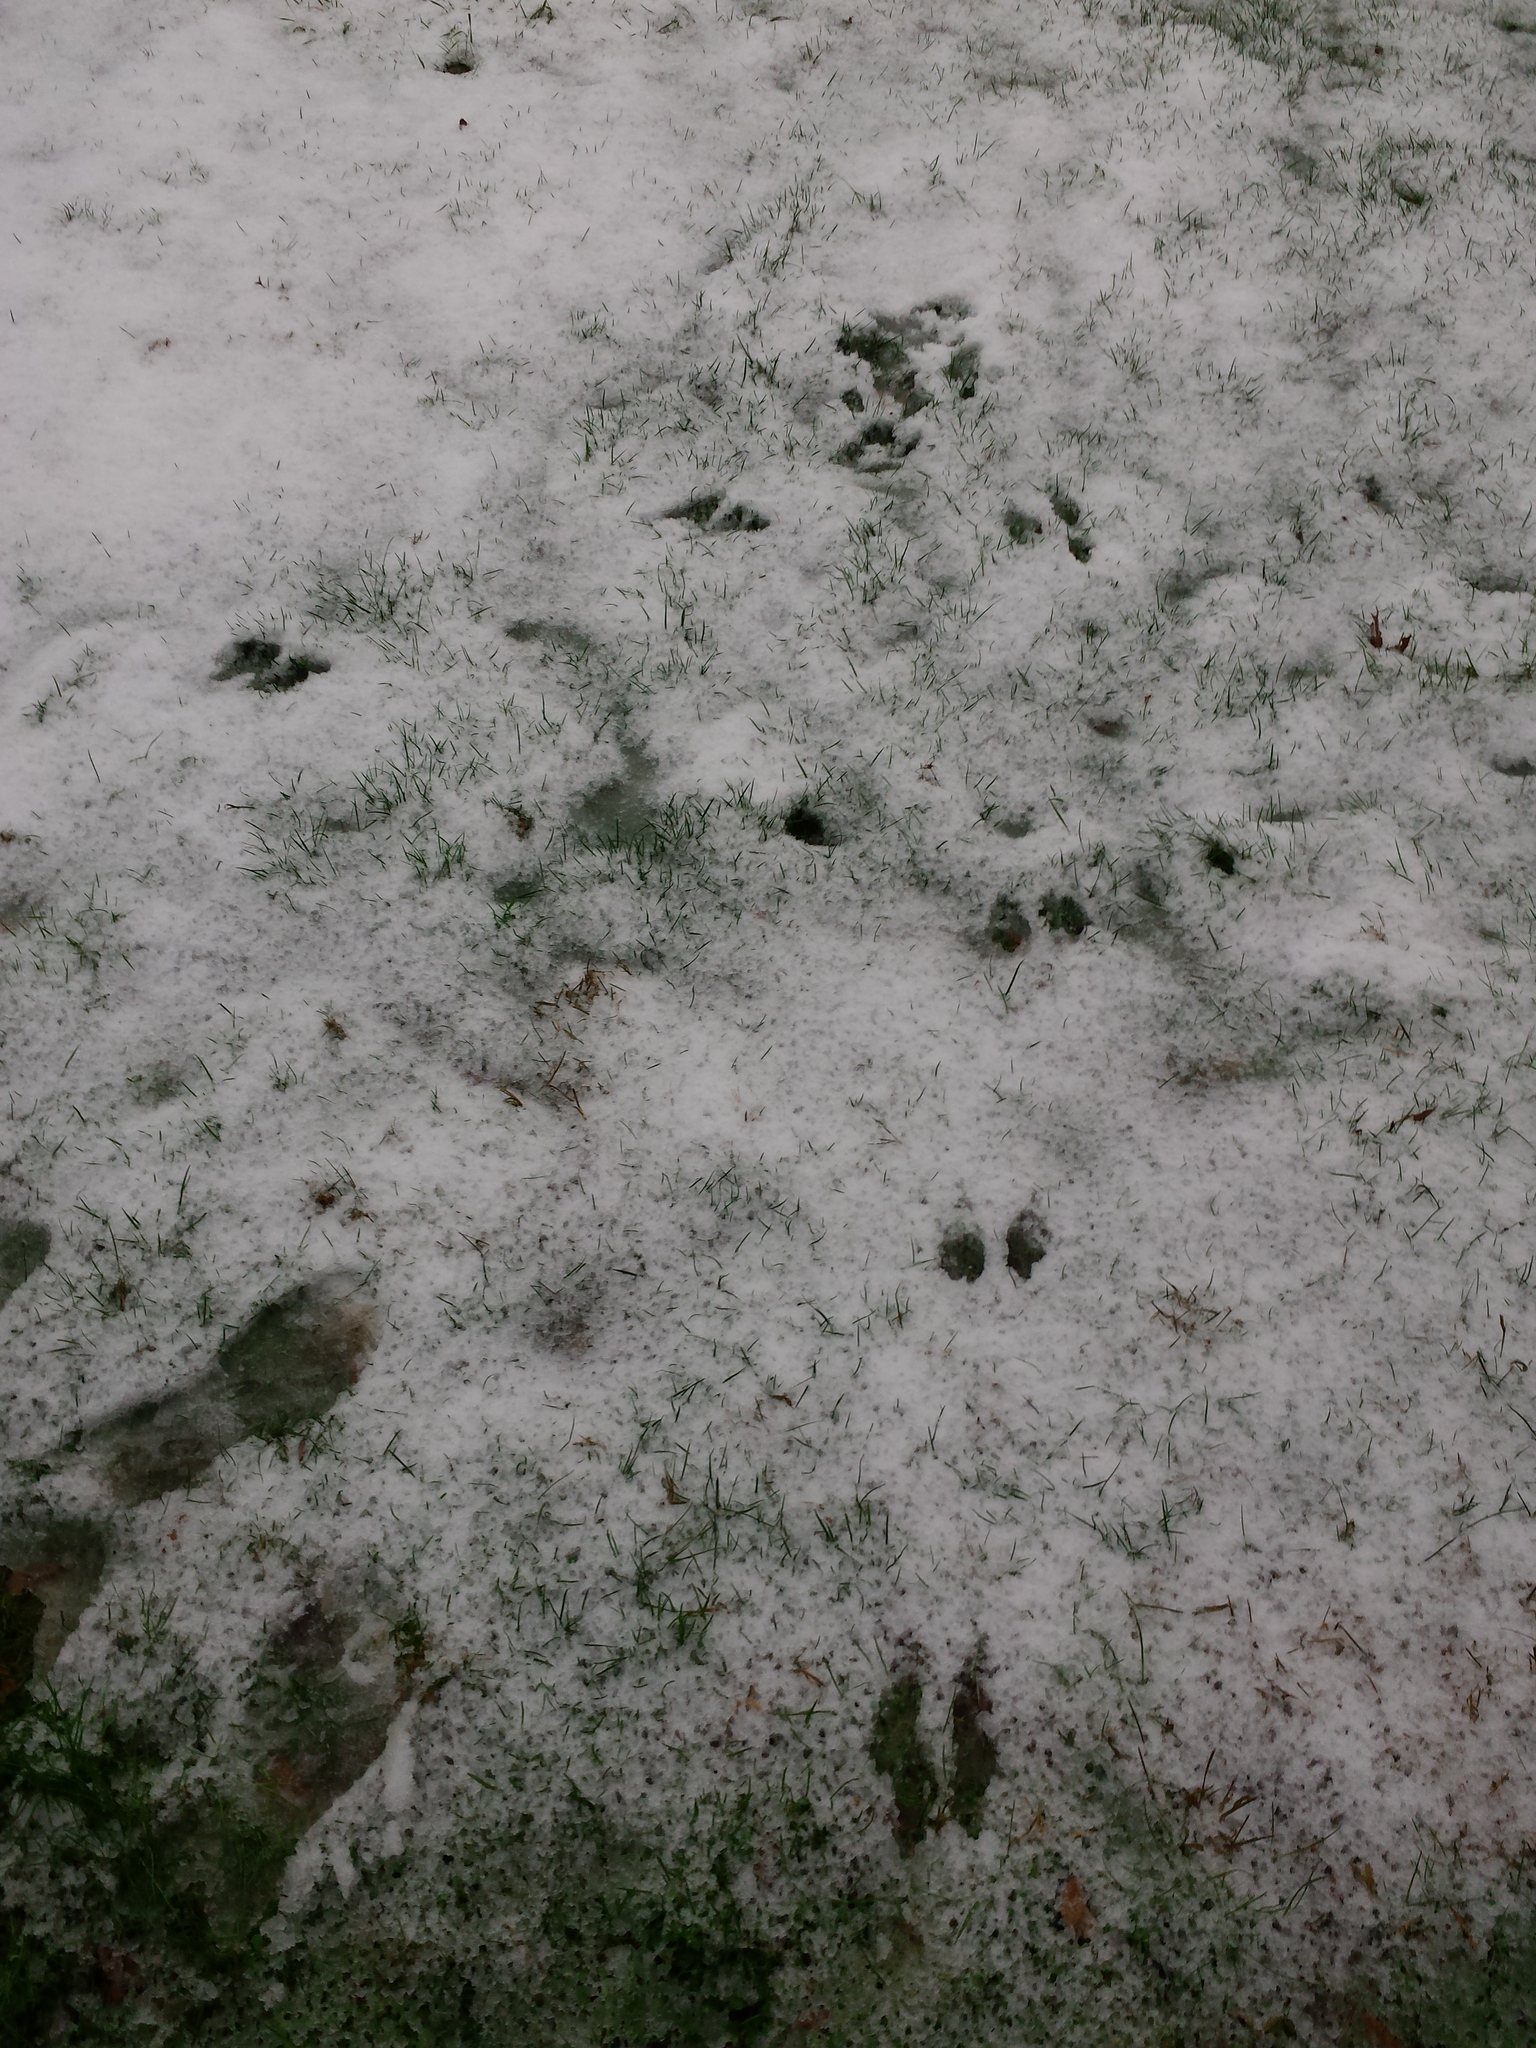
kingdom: Animalia
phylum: Chordata
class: Mammalia
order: Lagomorpha
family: Leporidae
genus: Sylvilagus
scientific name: Sylvilagus floridanus
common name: Eastern cottontail
